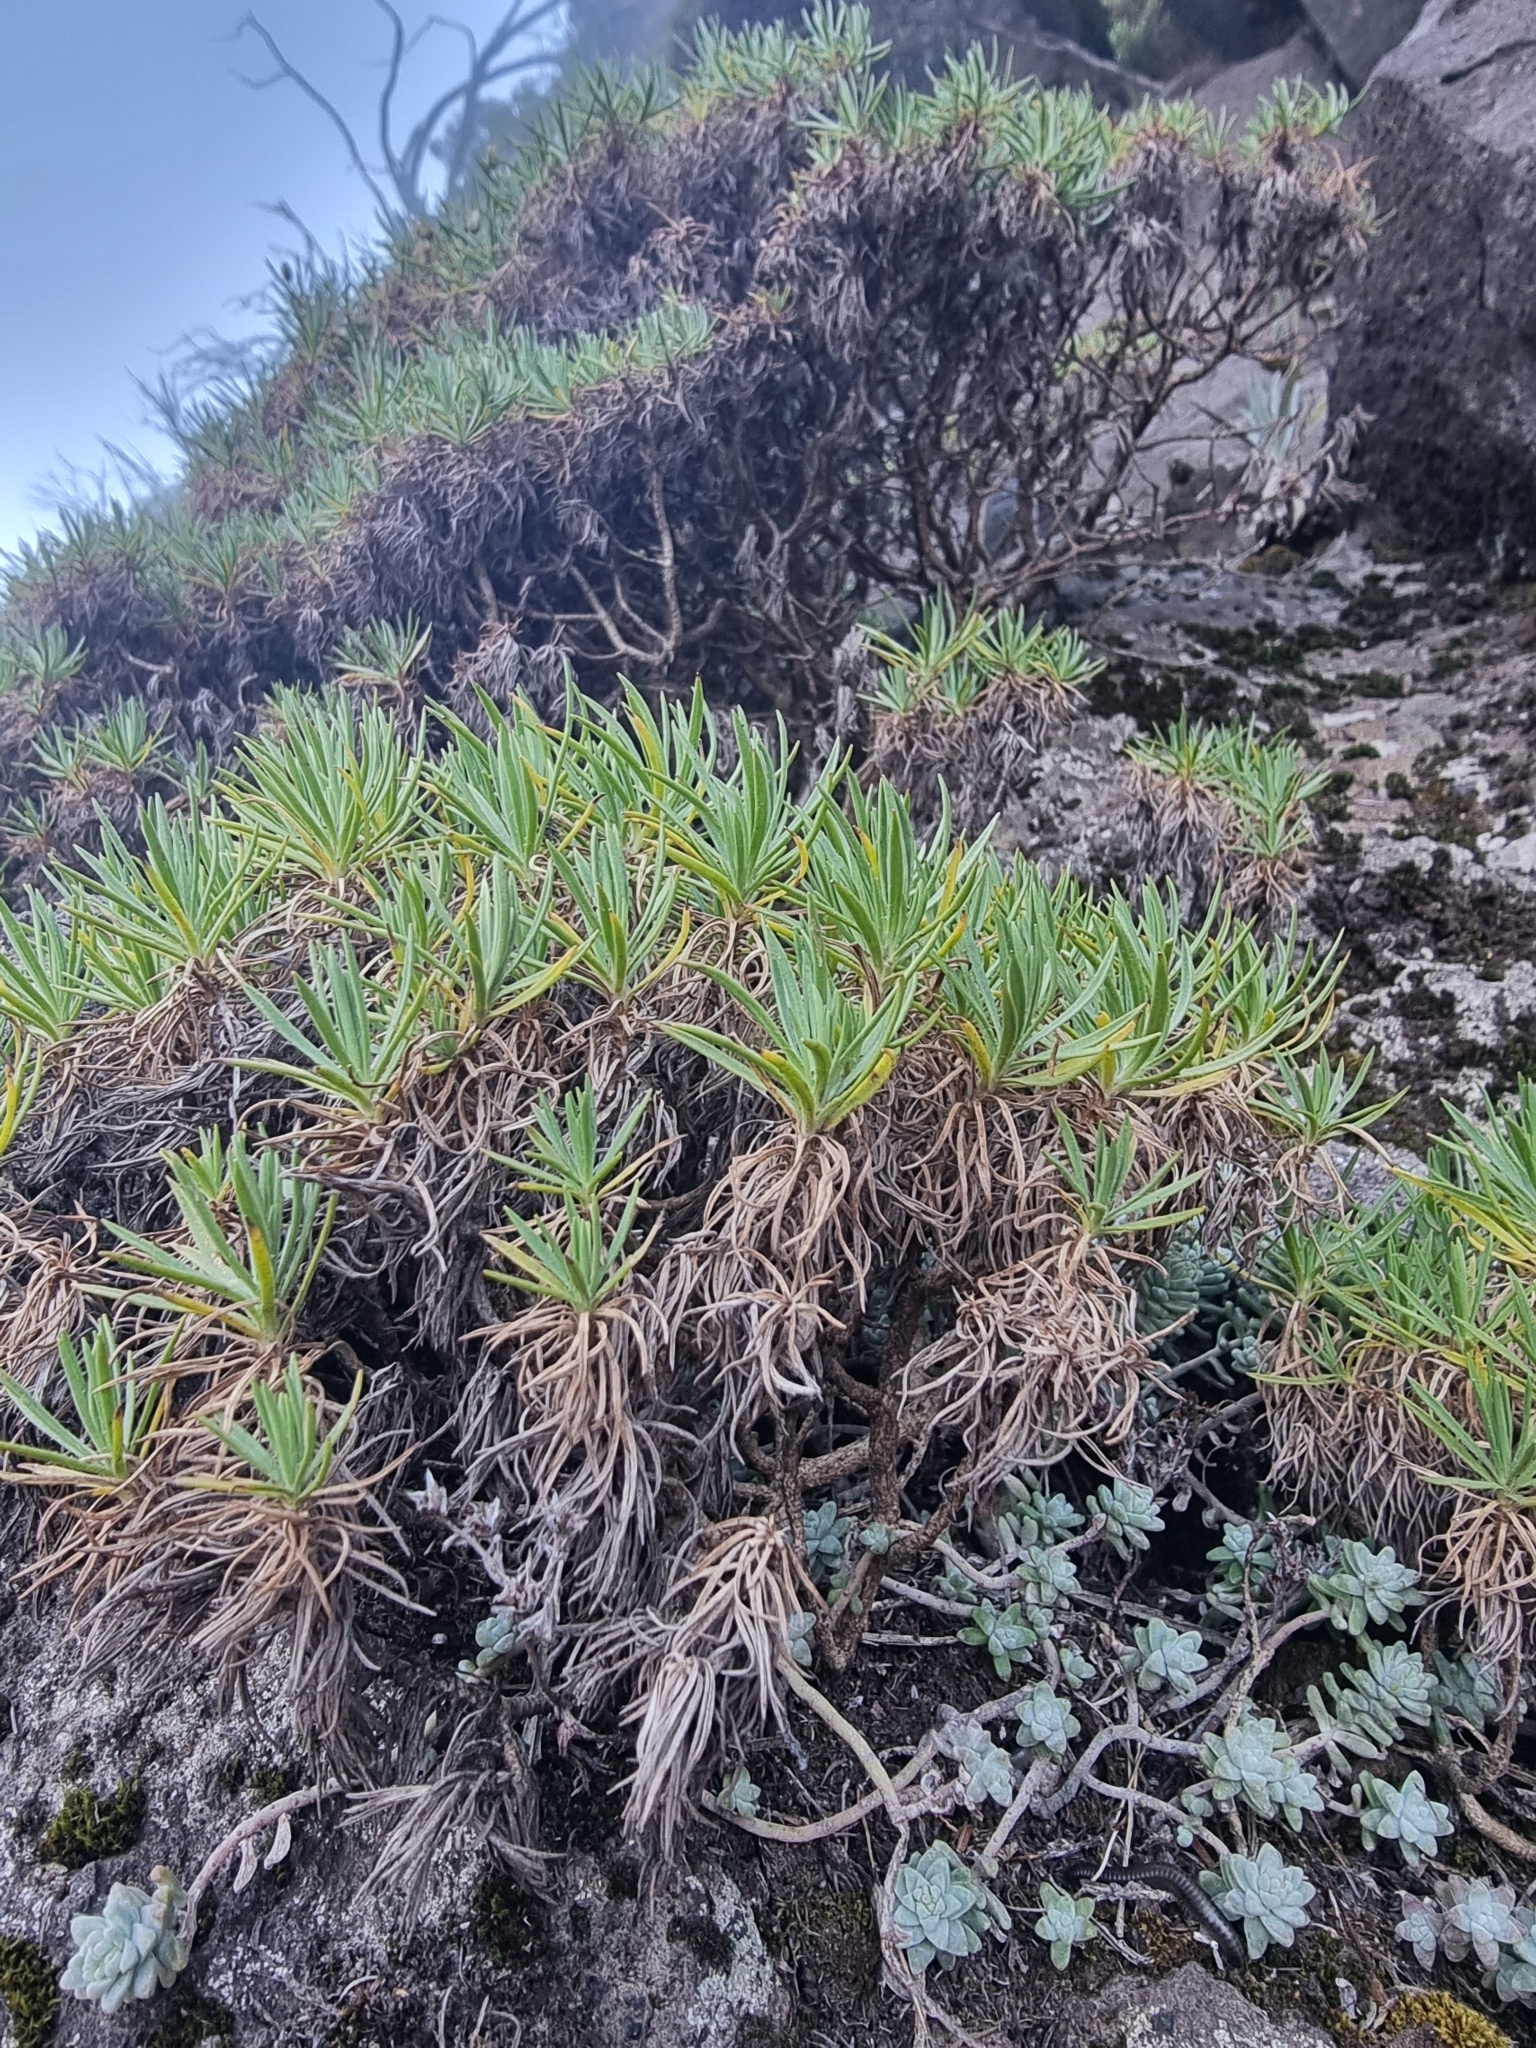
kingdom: Plantae
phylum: Tracheophyta
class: Magnoliopsida
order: Lamiales
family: Plantaginaceae
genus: Plantago
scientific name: Plantago arborescens
